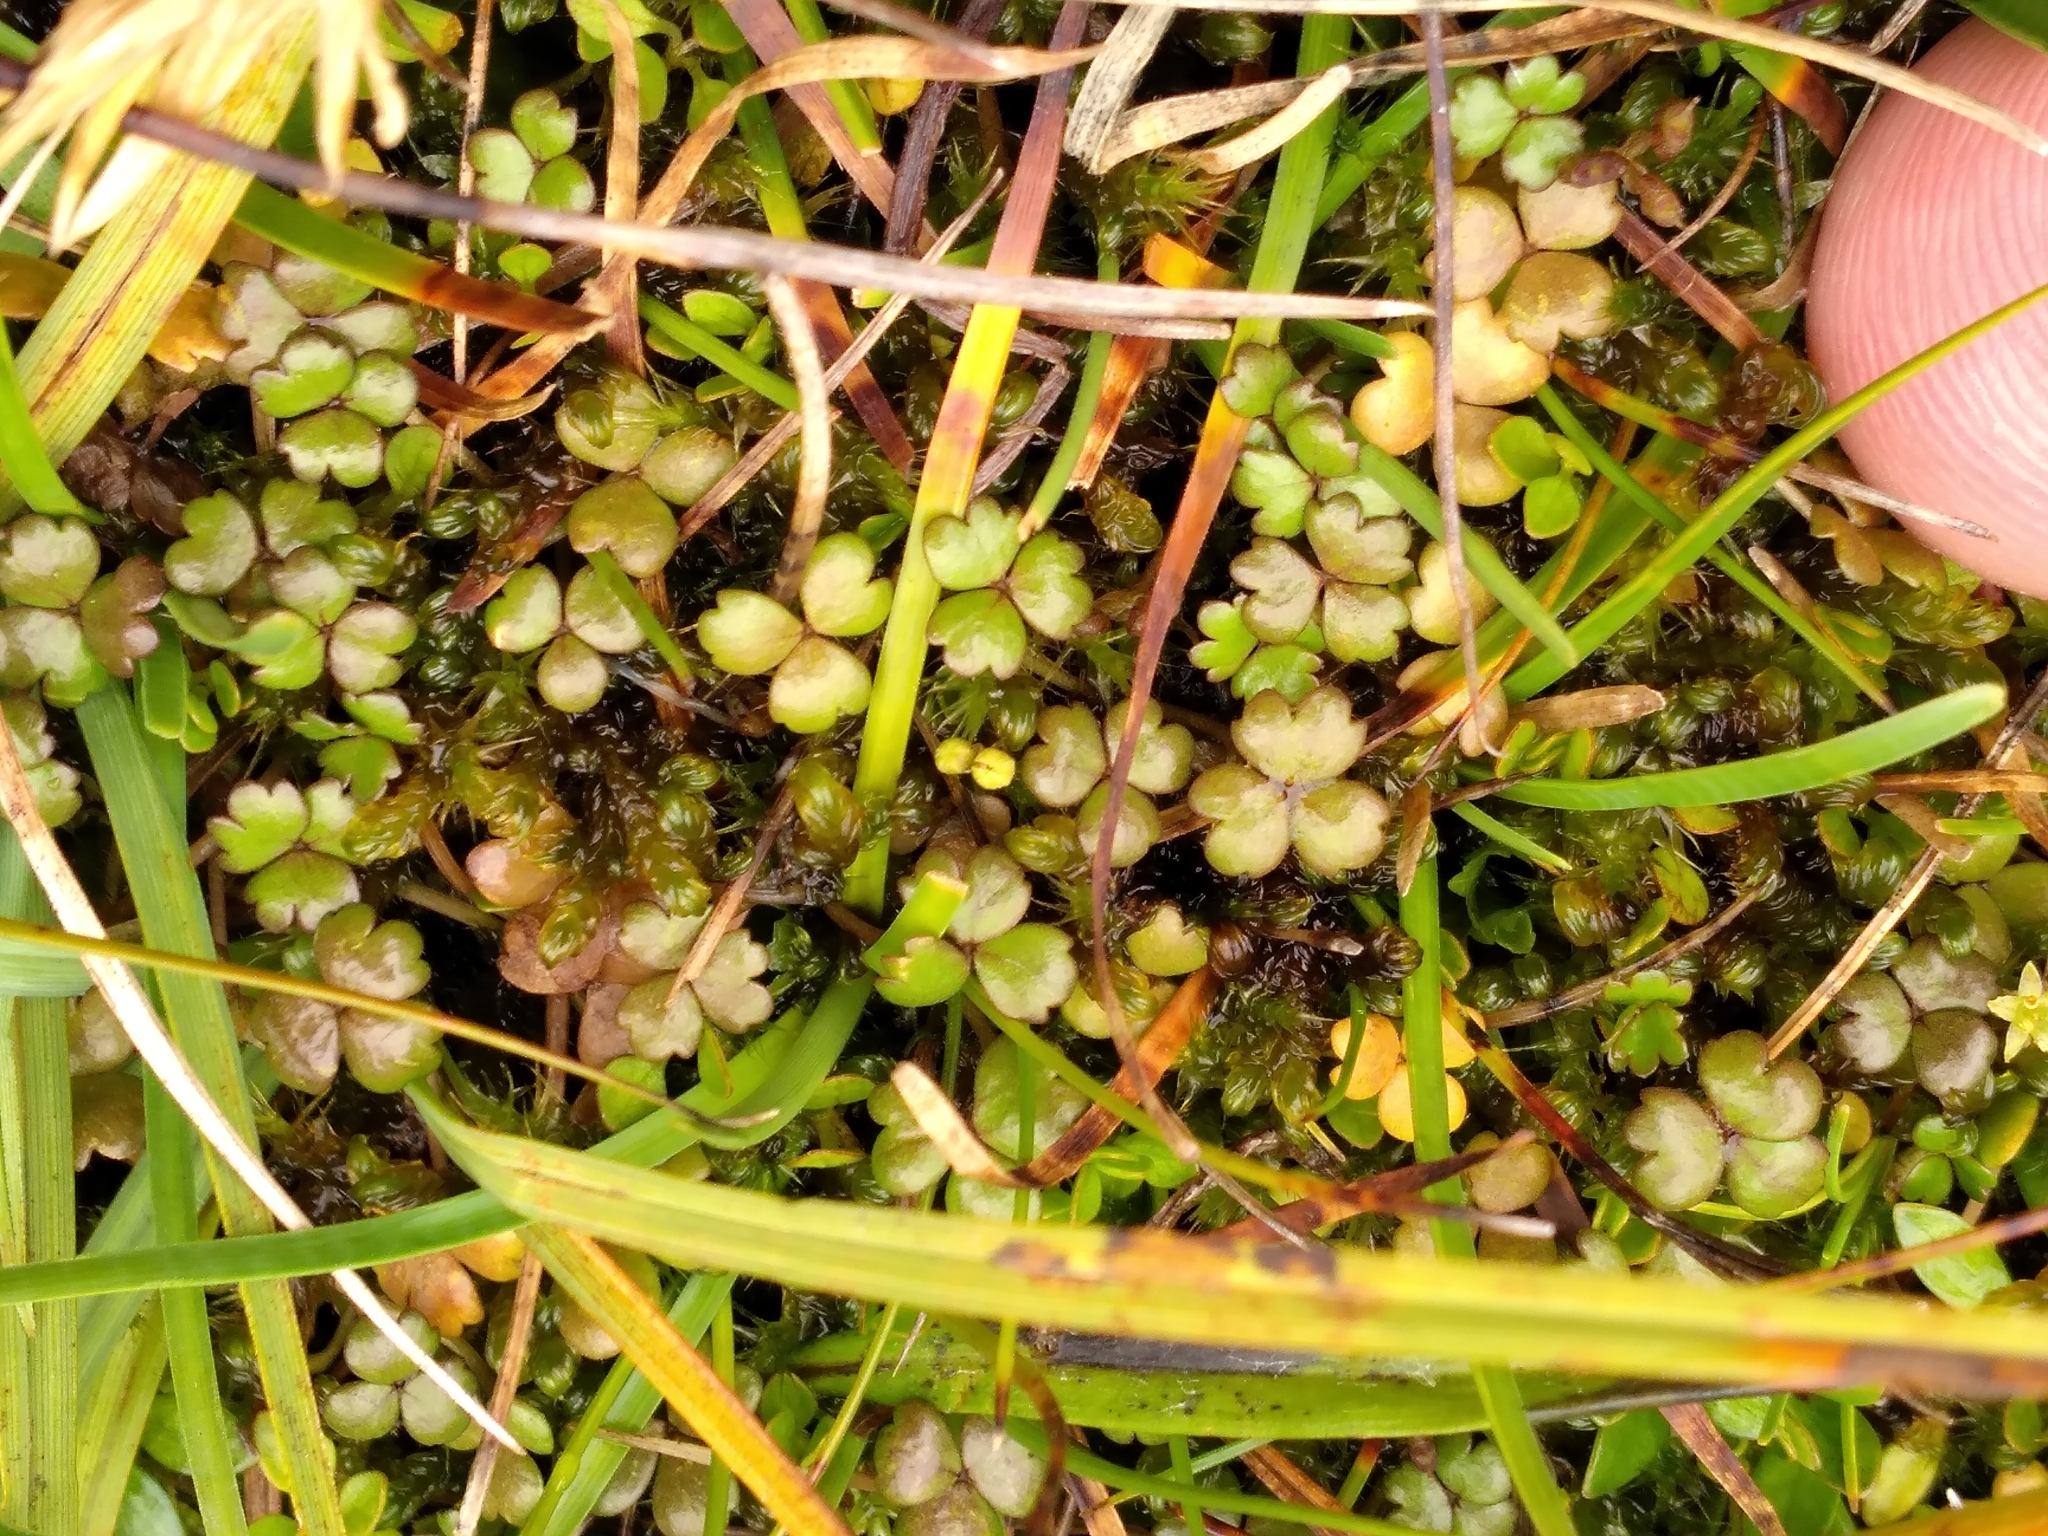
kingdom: Plantae
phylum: Tracheophyta
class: Magnoliopsida
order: Apiales
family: Araliaceae
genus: Hydrocotyle
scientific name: Hydrocotyle sulcata
